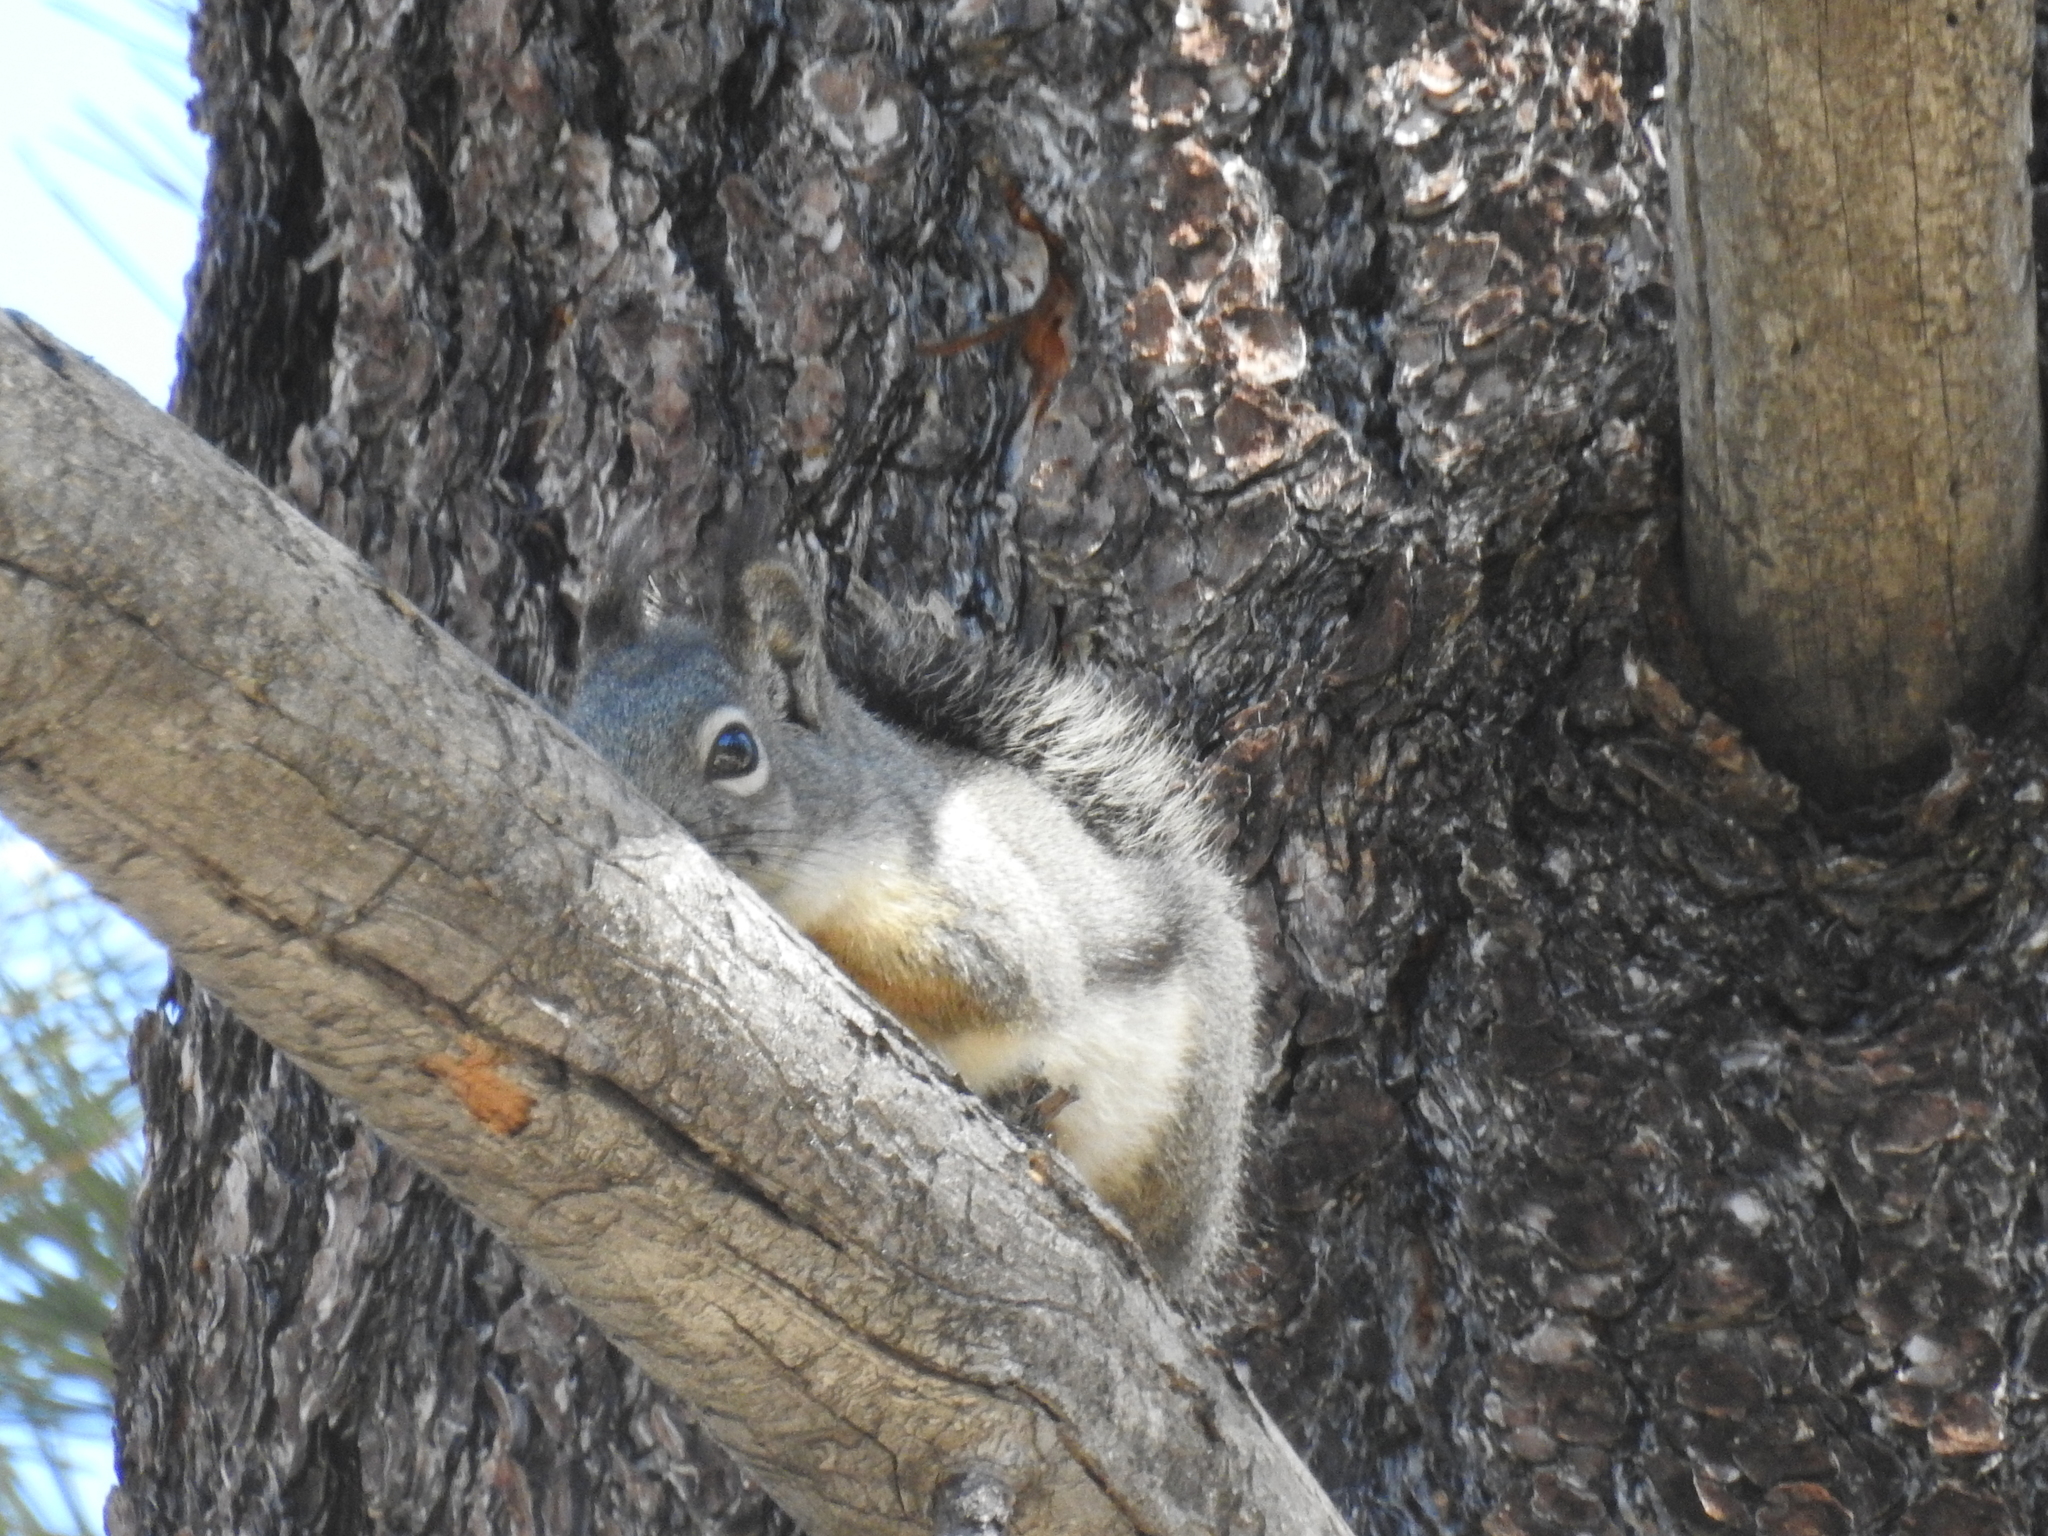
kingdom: Animalia
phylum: Chordata
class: Mammalia
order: Rodentia
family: Sciuridae
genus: Tamiasciurus
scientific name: Tamiasciurus douglasii
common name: Douglas's squirrel
